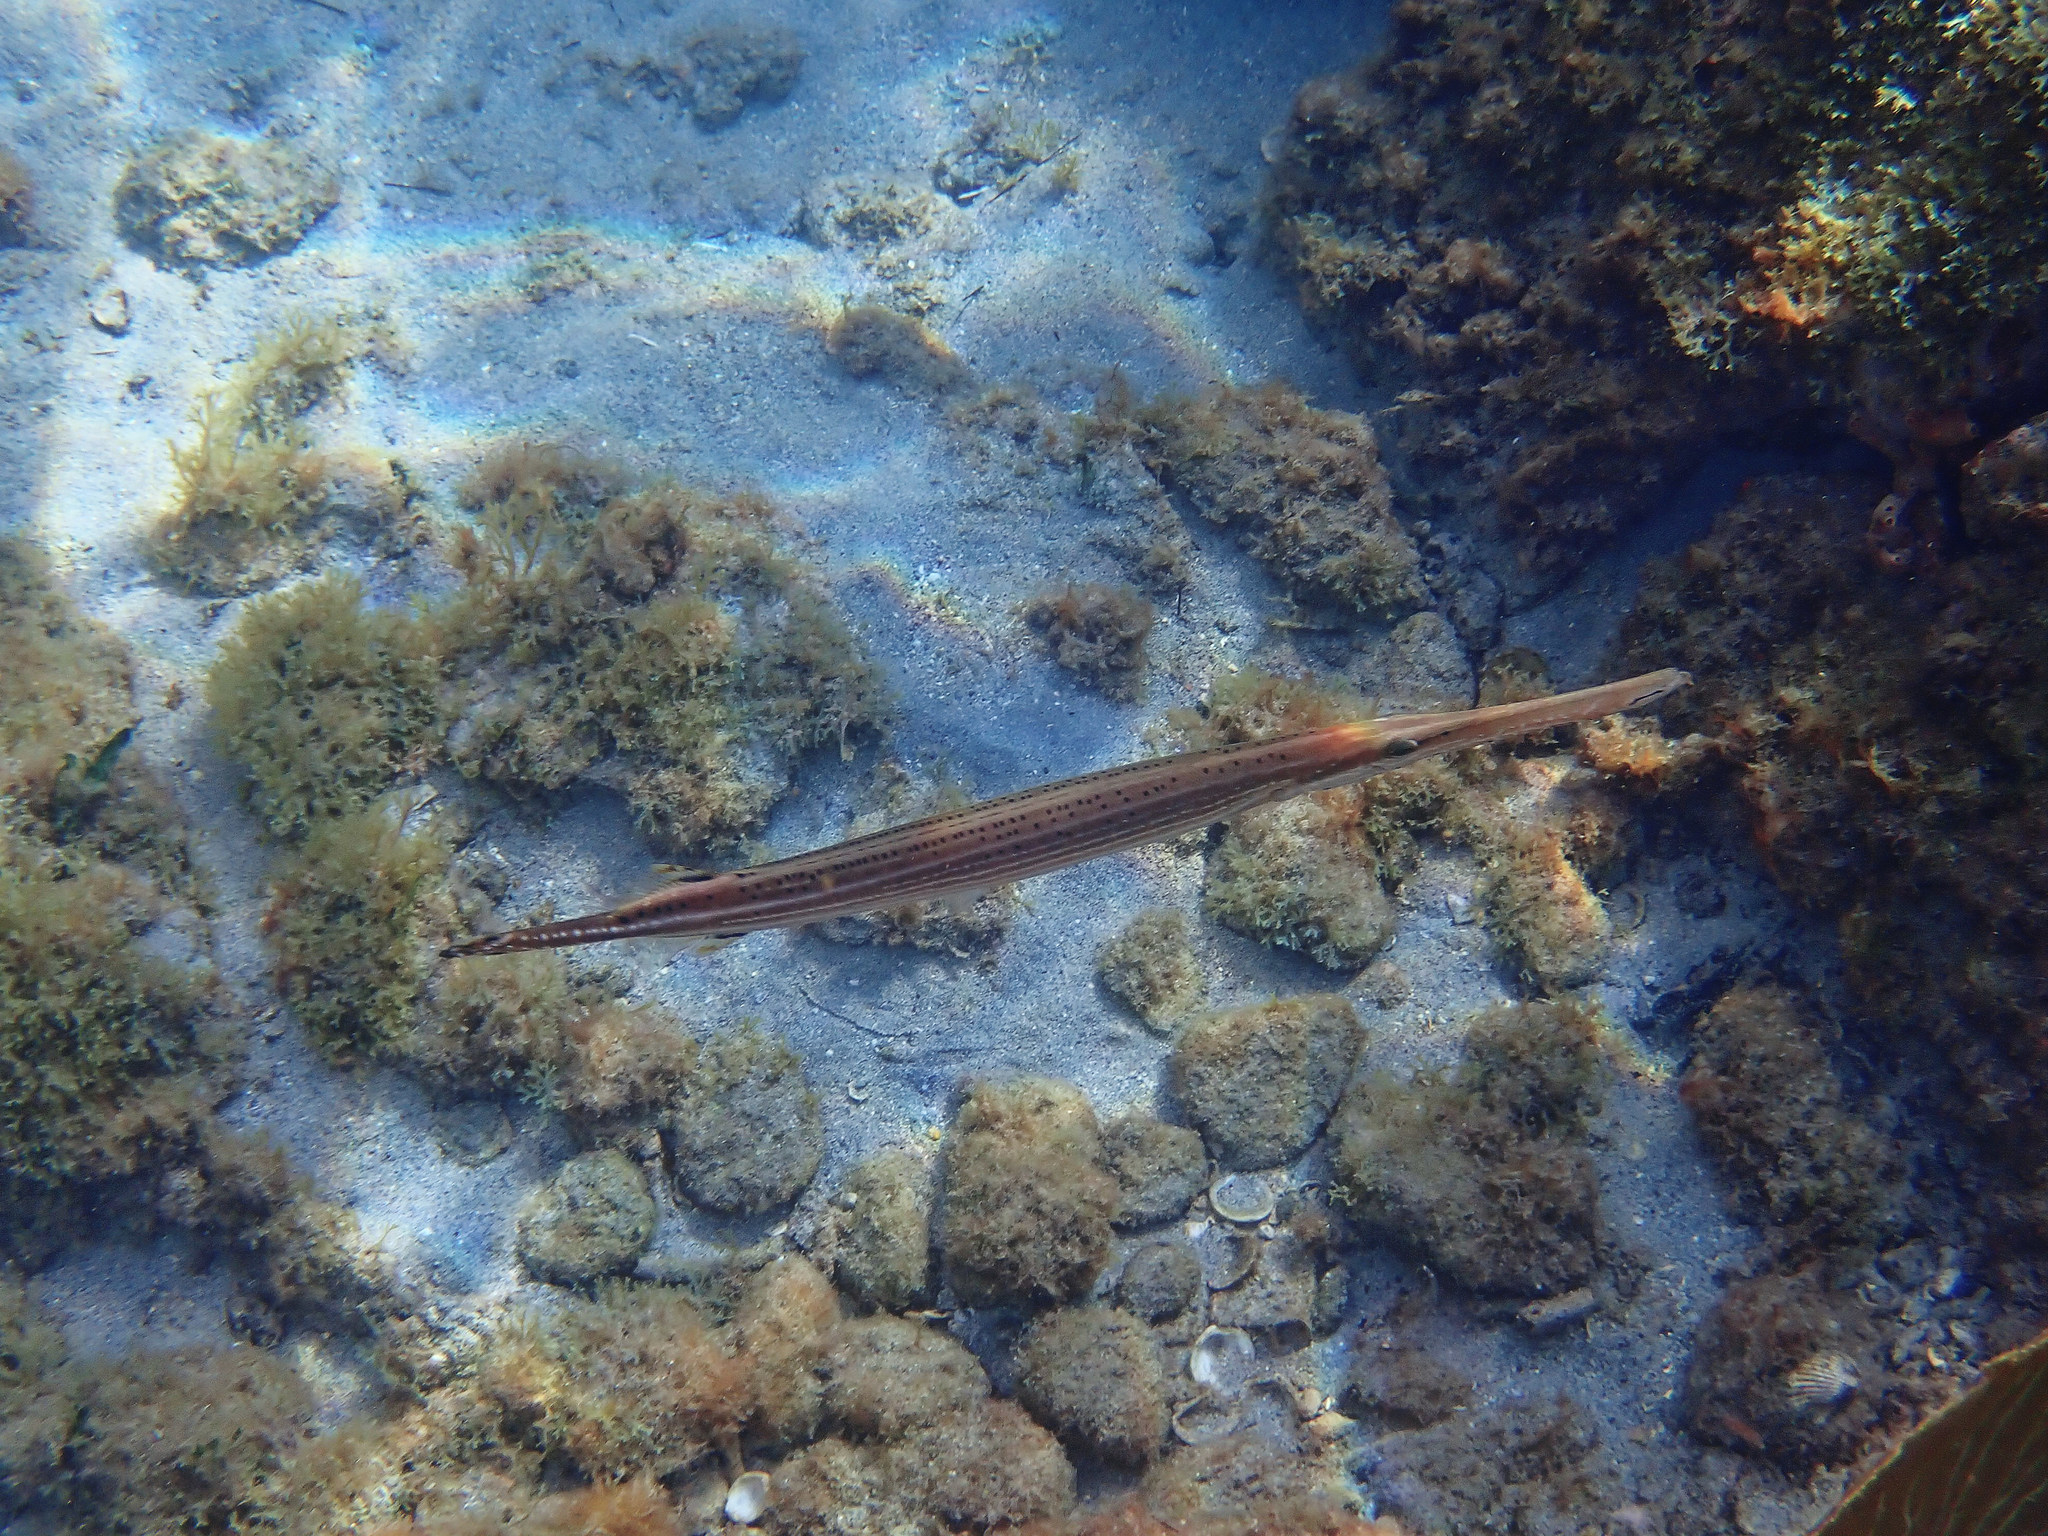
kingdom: Animalia
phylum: Chordata
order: Syngnathiformes
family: Aulostomidae
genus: Aulostomus
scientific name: Aulostomus maculatus
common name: West atlantic trumpetfish
